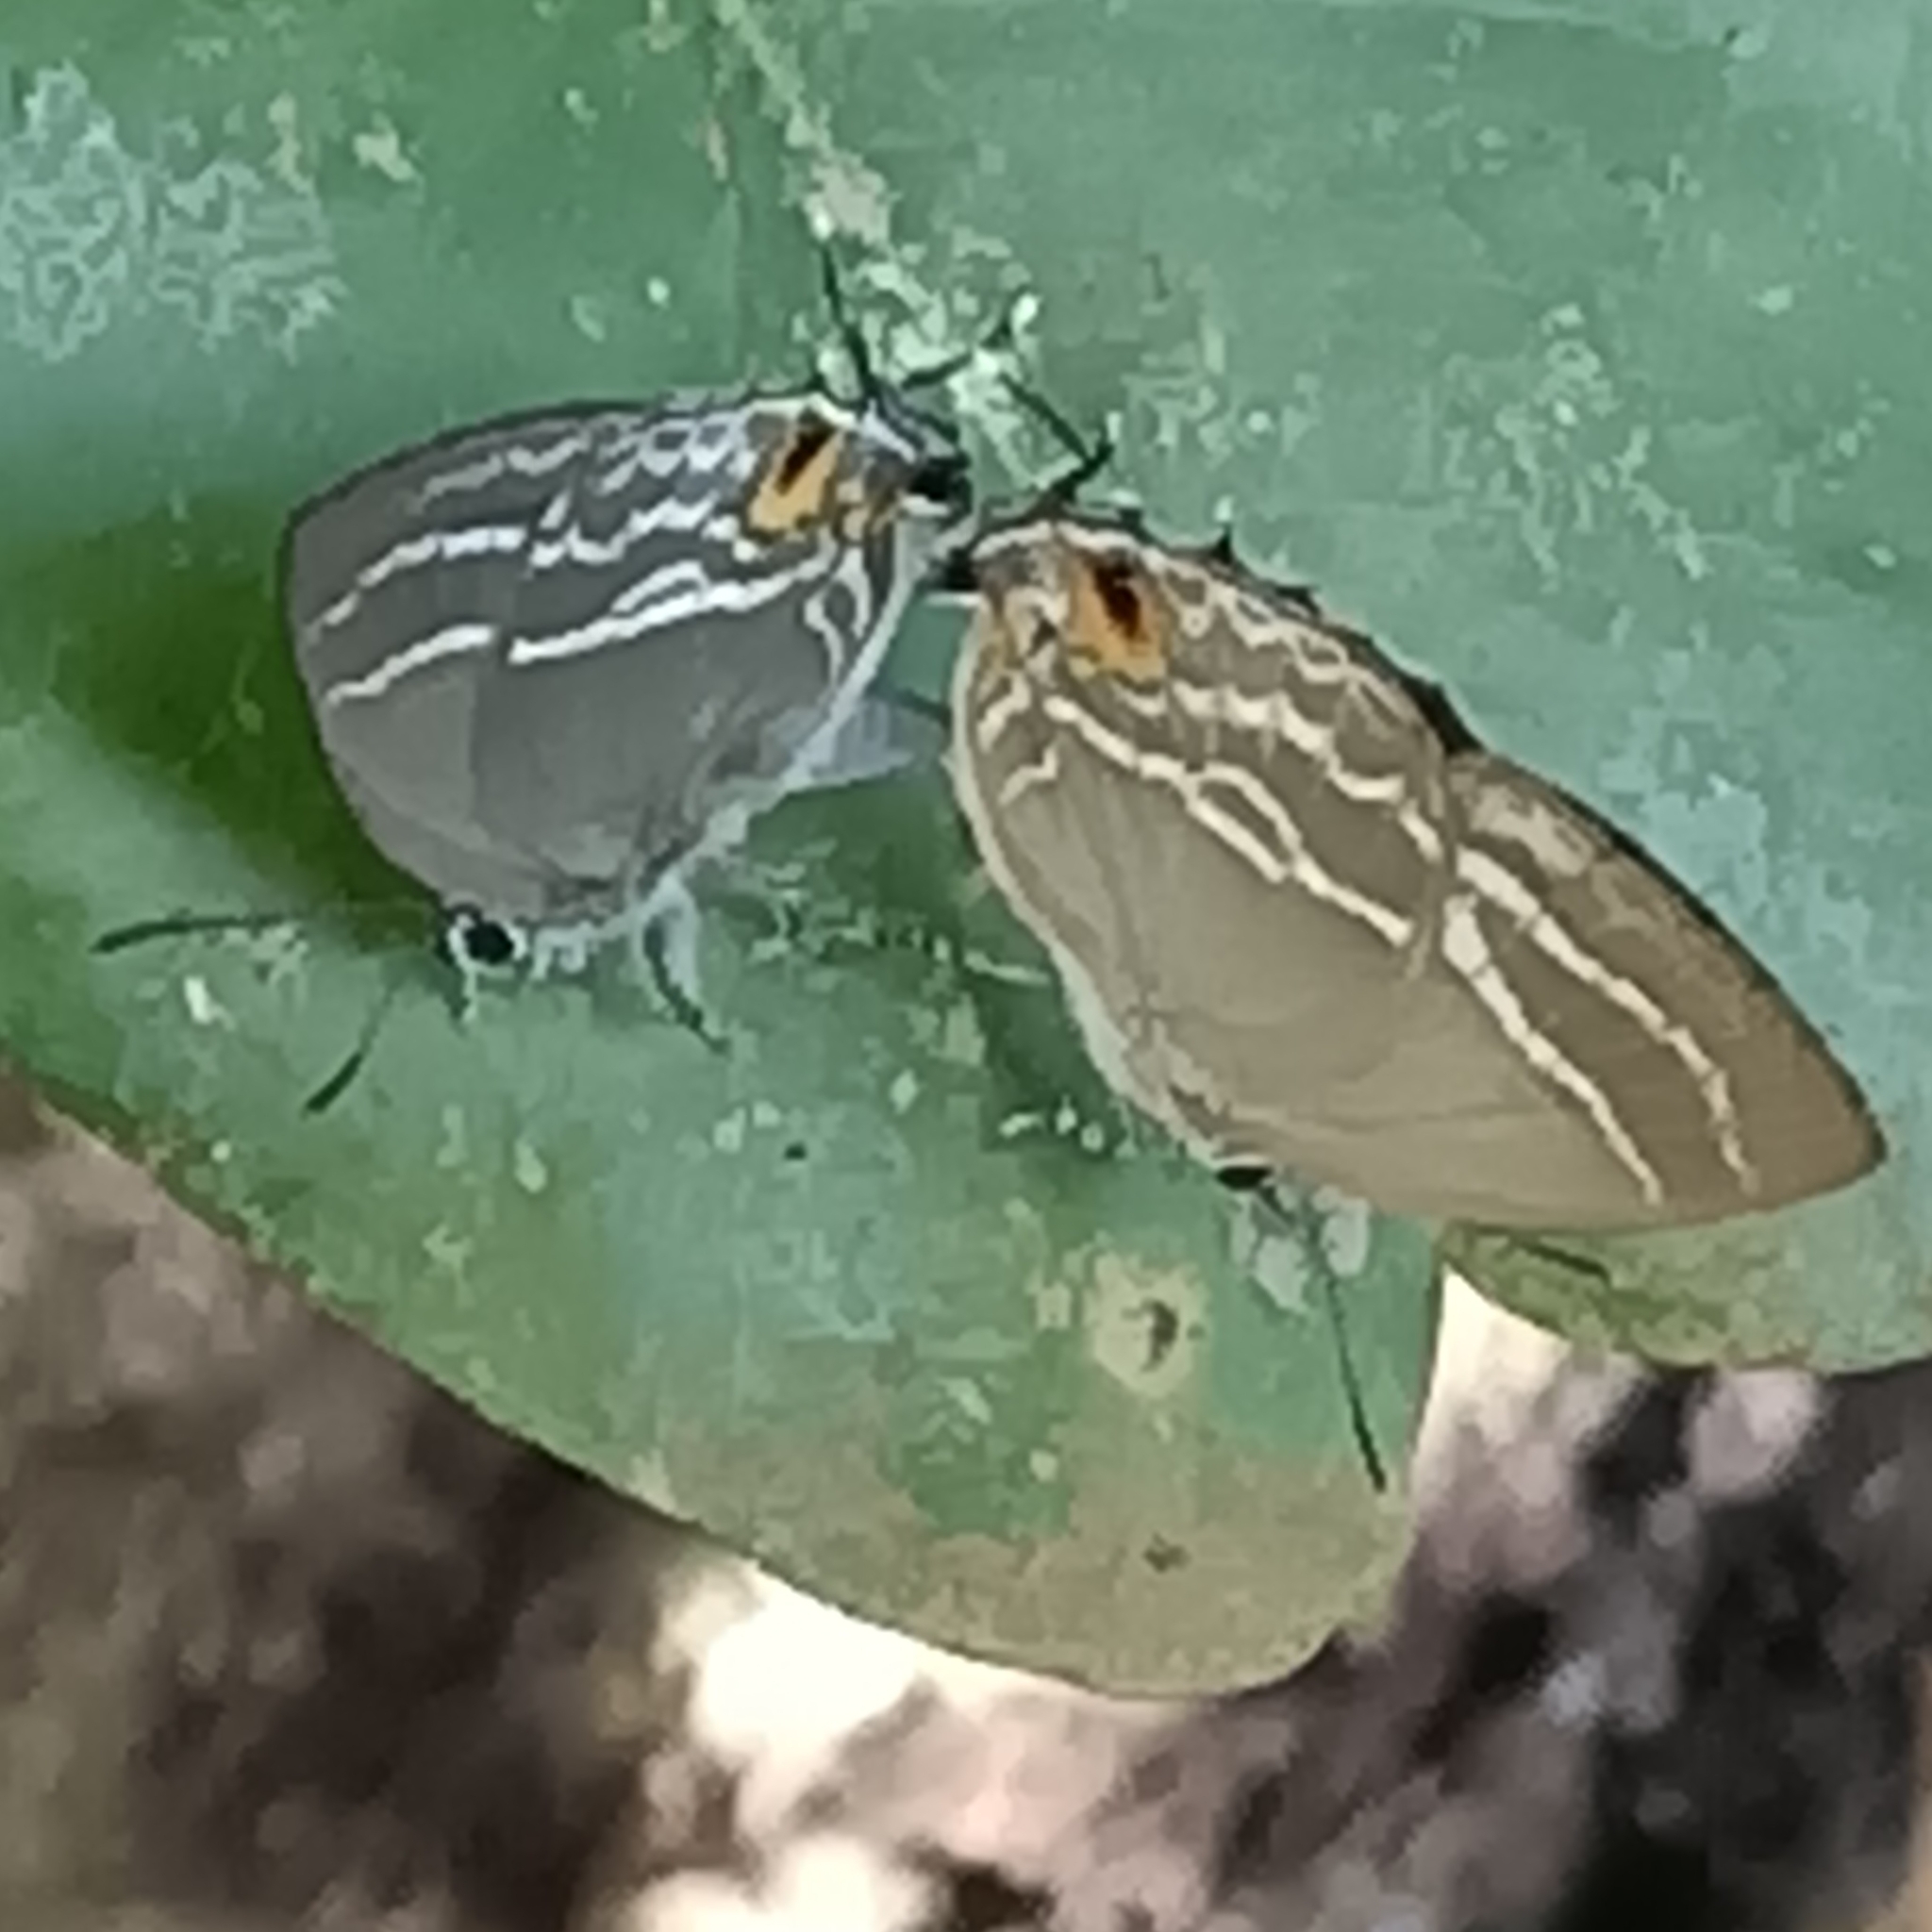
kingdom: Animalia
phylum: Arthropoda
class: Insecta
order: Lepidoptera
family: Lycaenidae
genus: Cupathecla
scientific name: Cupathecla
